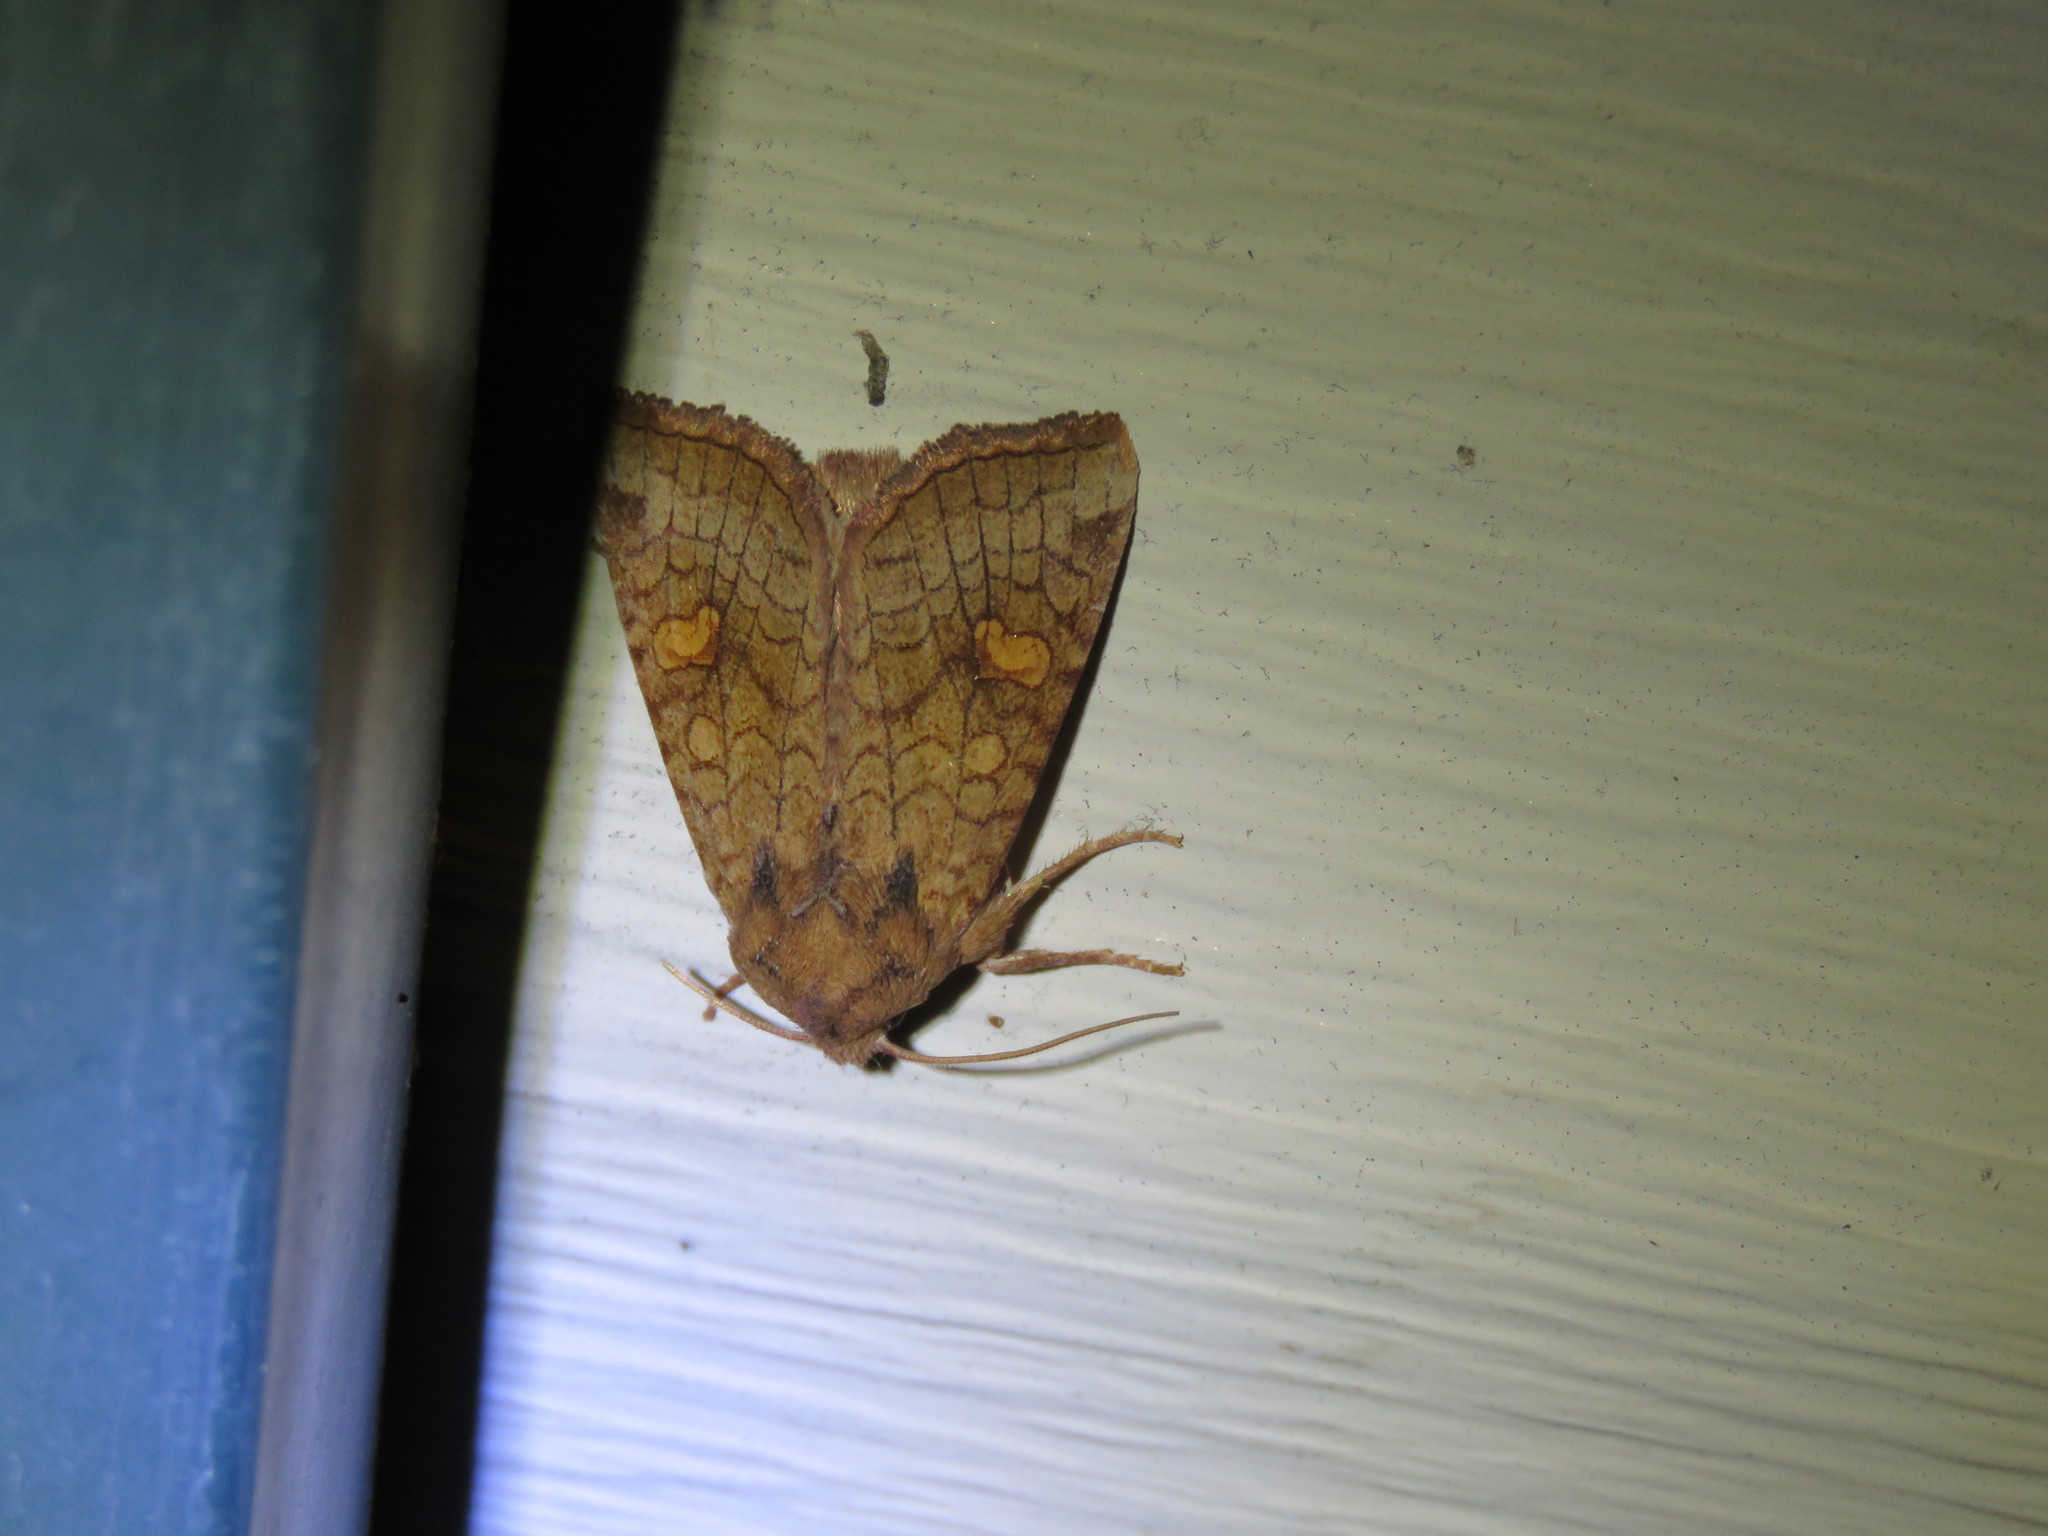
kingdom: Animalia
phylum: Arthropoda
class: Insecta
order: Lepidoptera
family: Noctuidae
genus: Amphipoea
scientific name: Amphipoea
